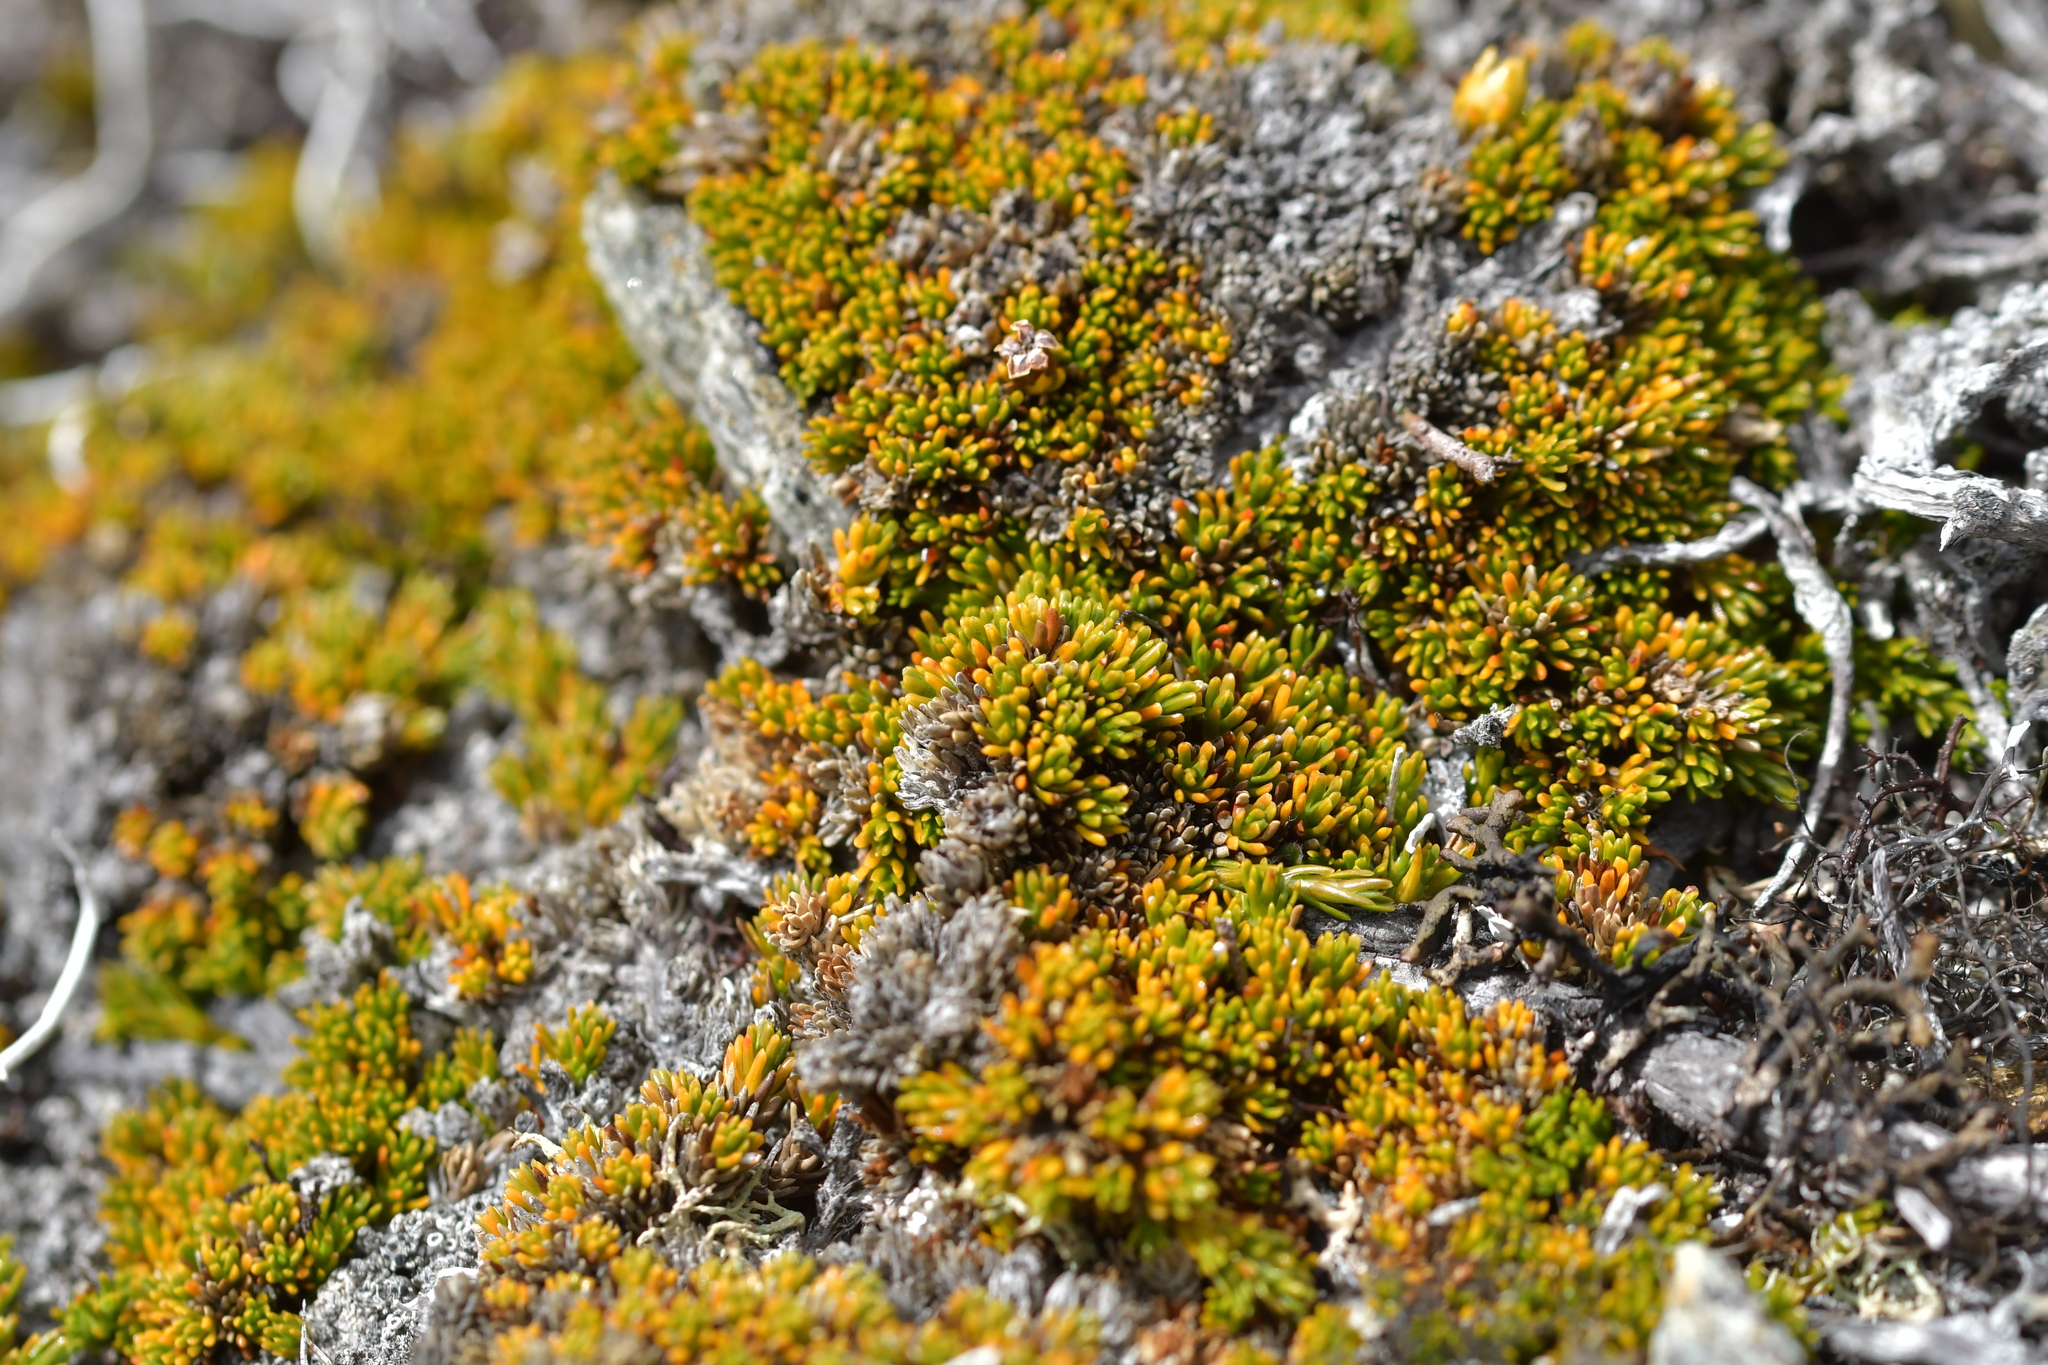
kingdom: Plantae
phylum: Tracheophyta
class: Magnoliopsida
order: Ericales
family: Ericaceae
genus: Dracophyllum
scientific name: Dracophyllum muscoides
